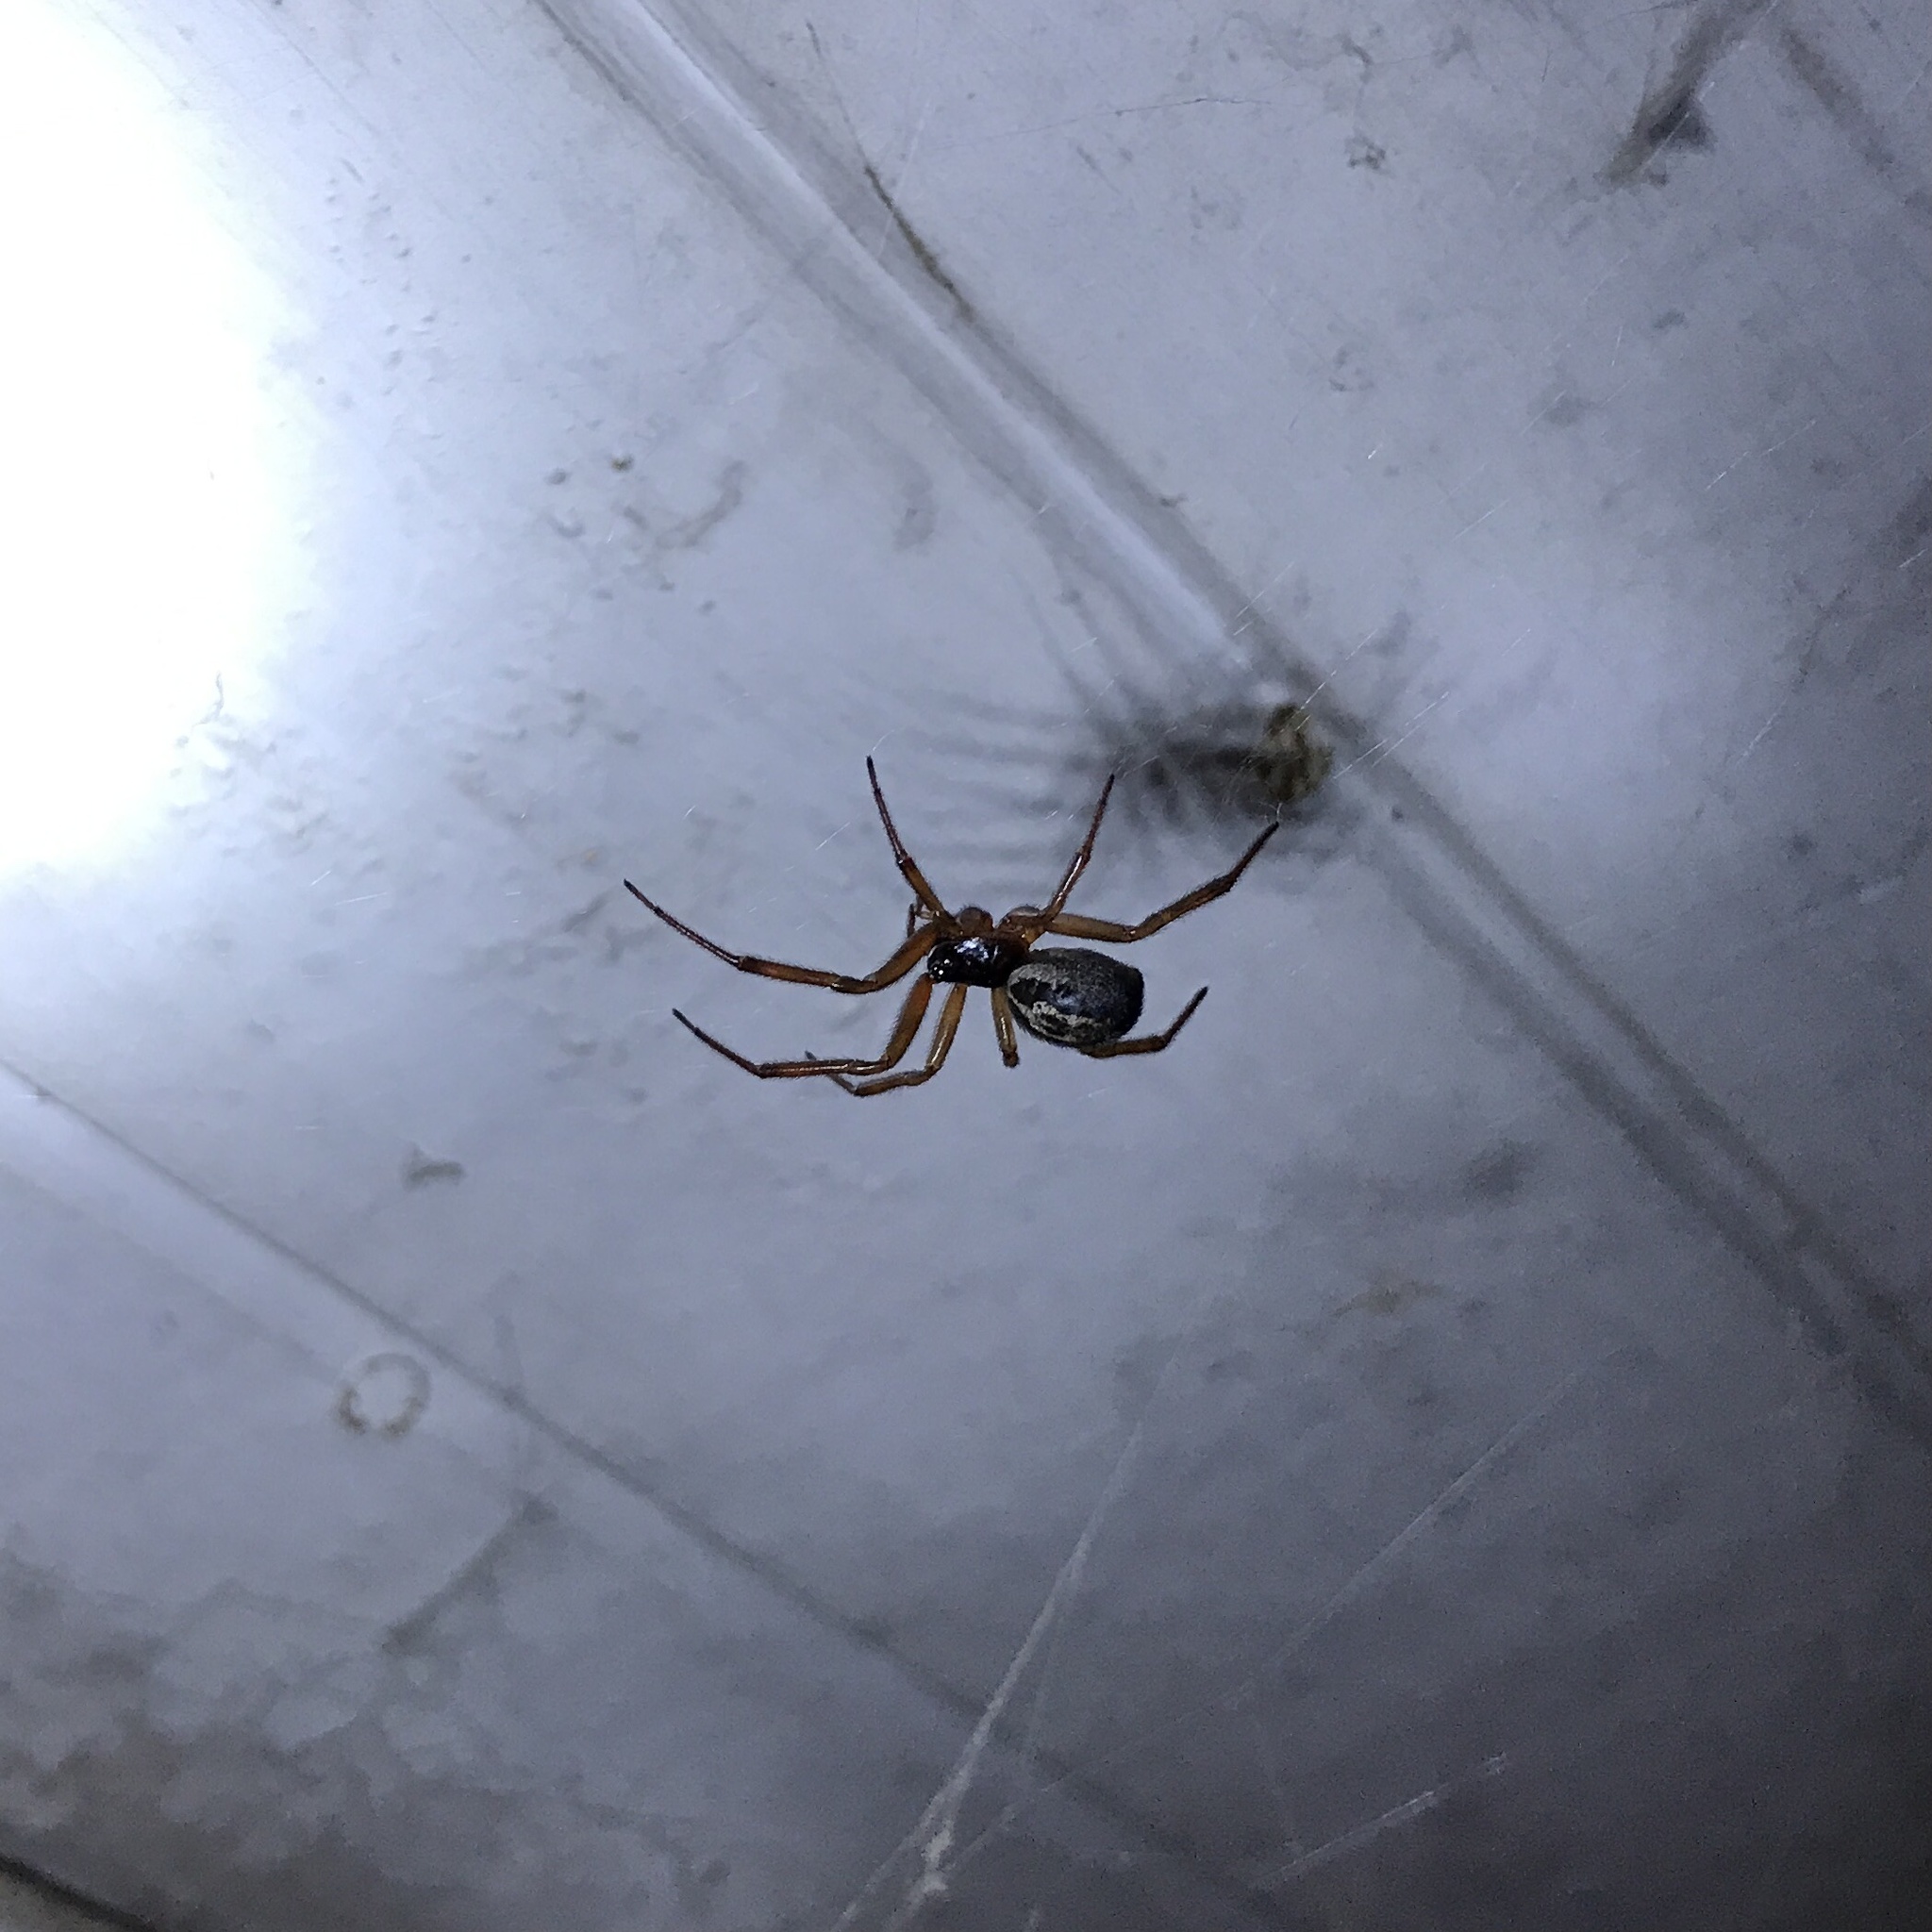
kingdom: Animalia
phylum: Arthropoda
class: Arachnida
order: Araneae
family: Theridiidae
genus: Steatoda
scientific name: Steatoda nobilis
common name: Cobweb weaver
